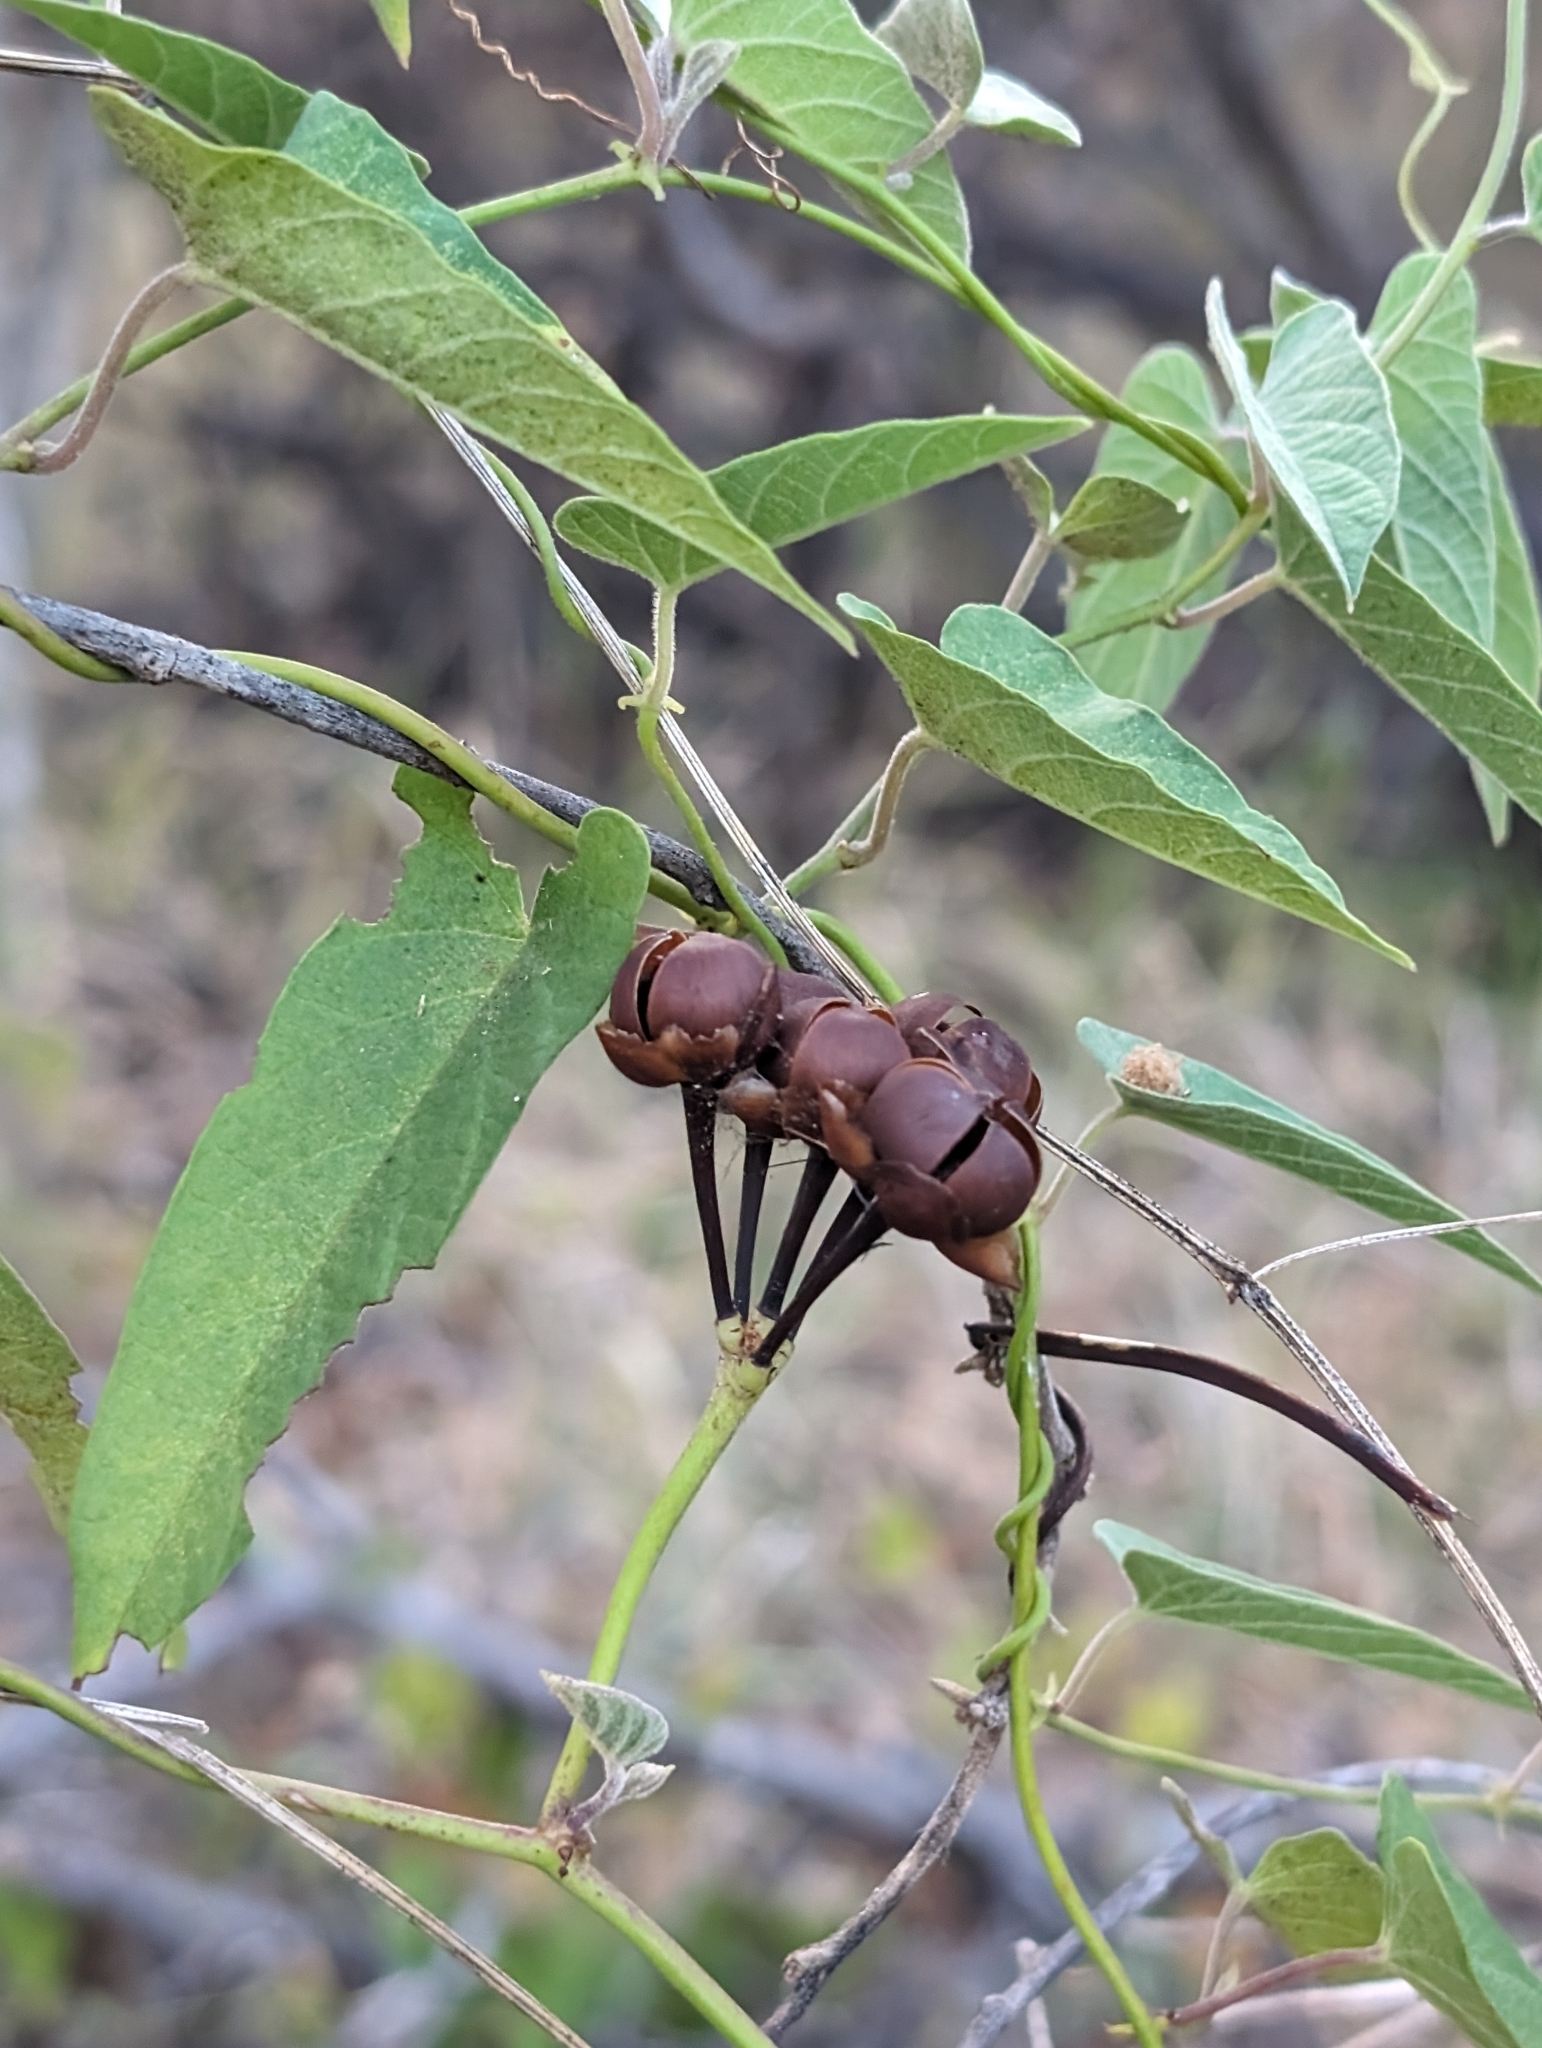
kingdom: Plantae
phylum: Tracheophyta
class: Magnoliopsida
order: Solanales
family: Convolvulaceae
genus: Camonea
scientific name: Camonea umbellata
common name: Hogvine
